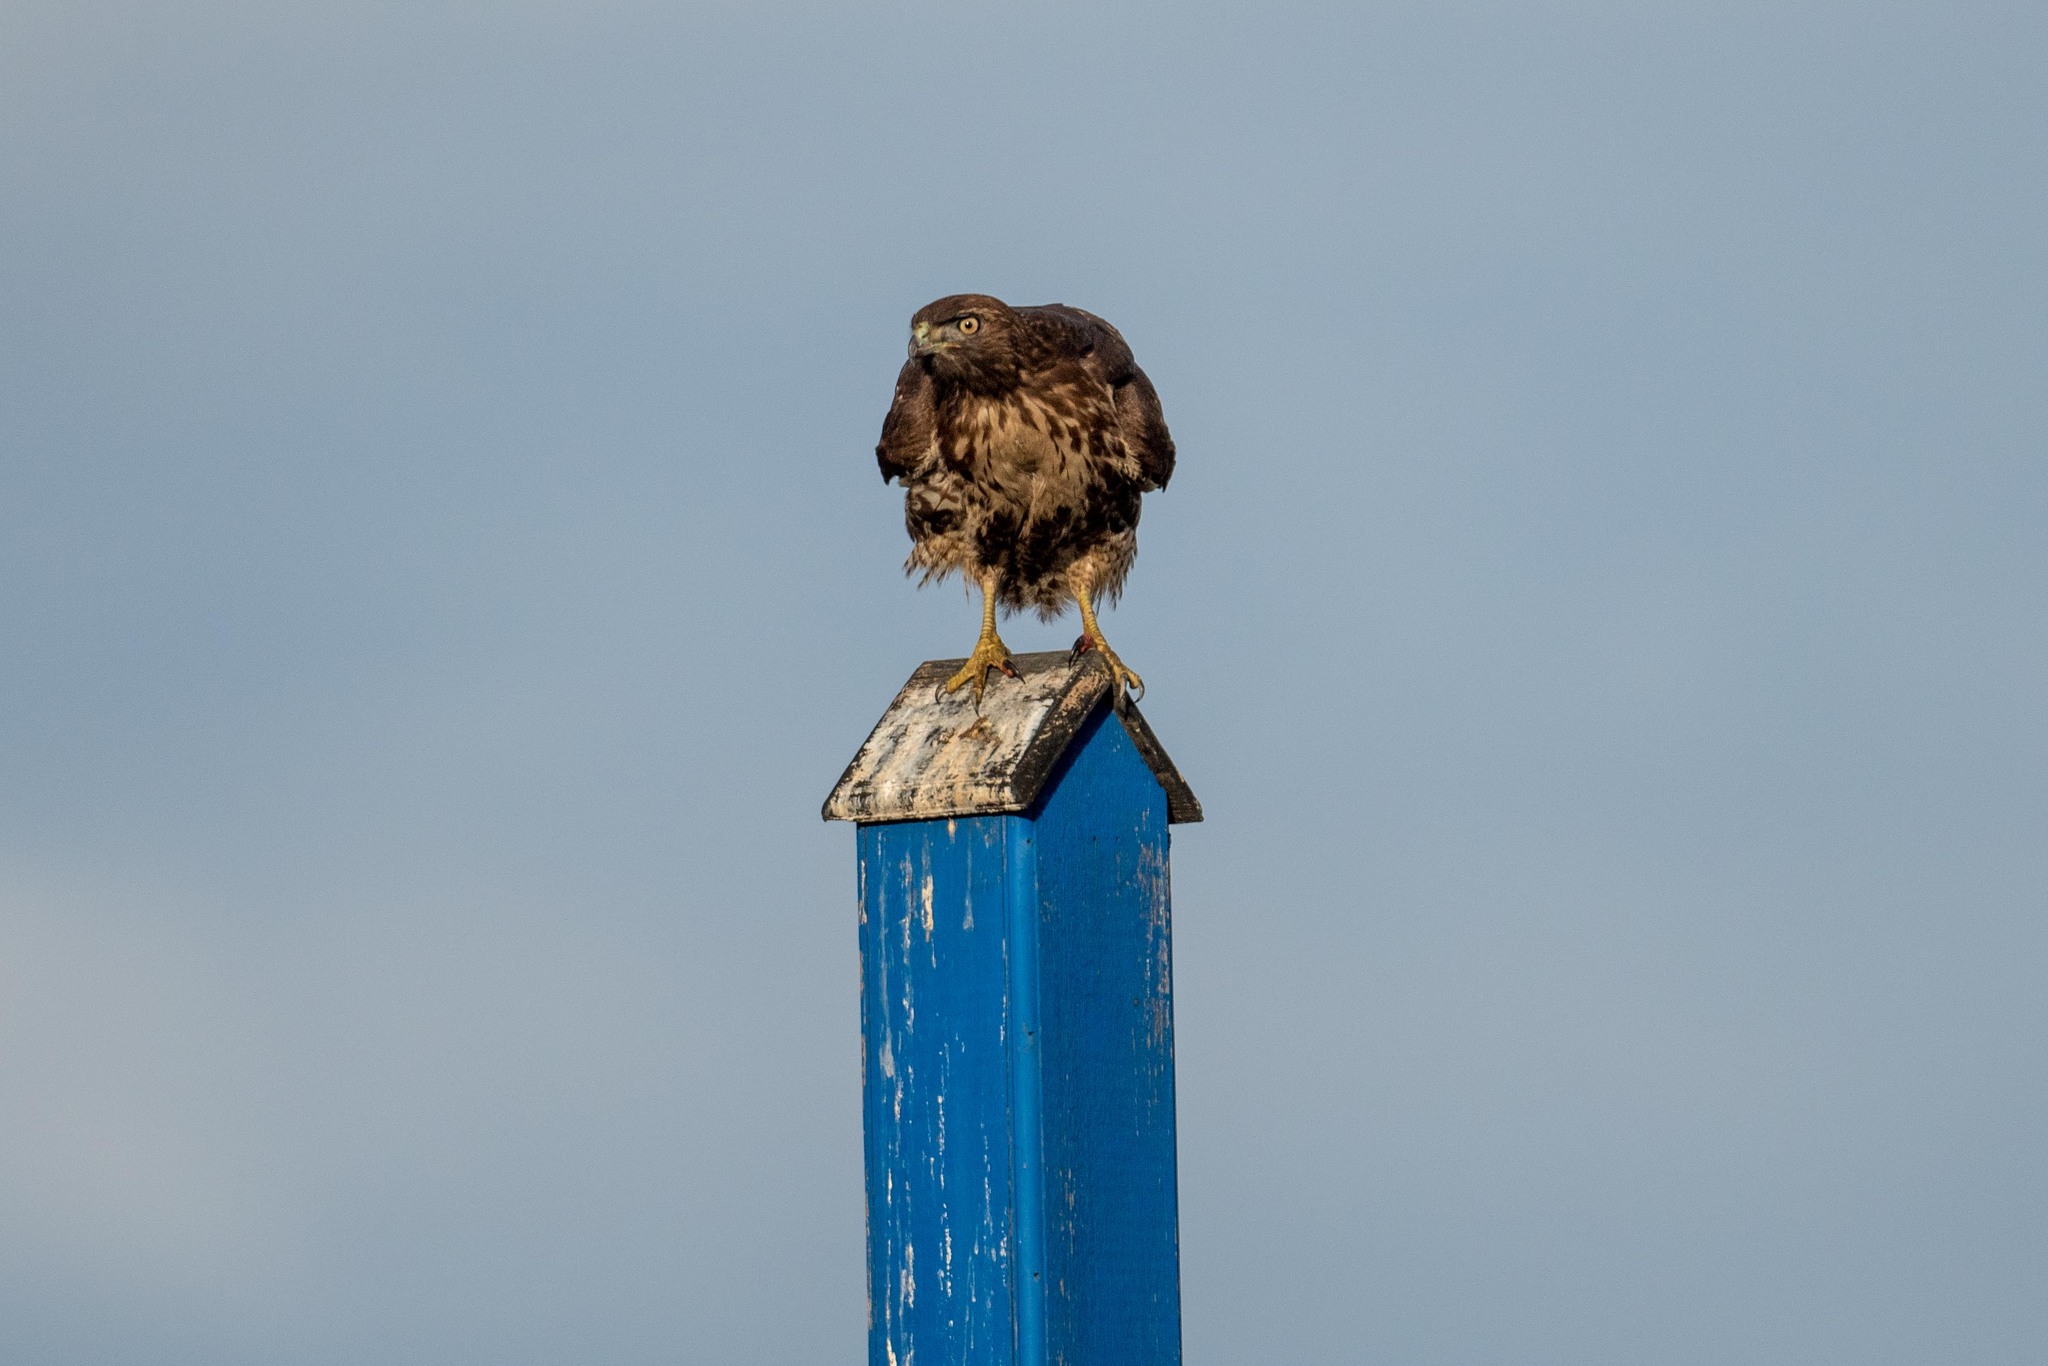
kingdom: Animalia
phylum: Chordata
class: Aves
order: Accipitriformes
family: Accipitridae
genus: Buteo
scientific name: Buteo jamaicensis
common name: Red-tailed hawk
